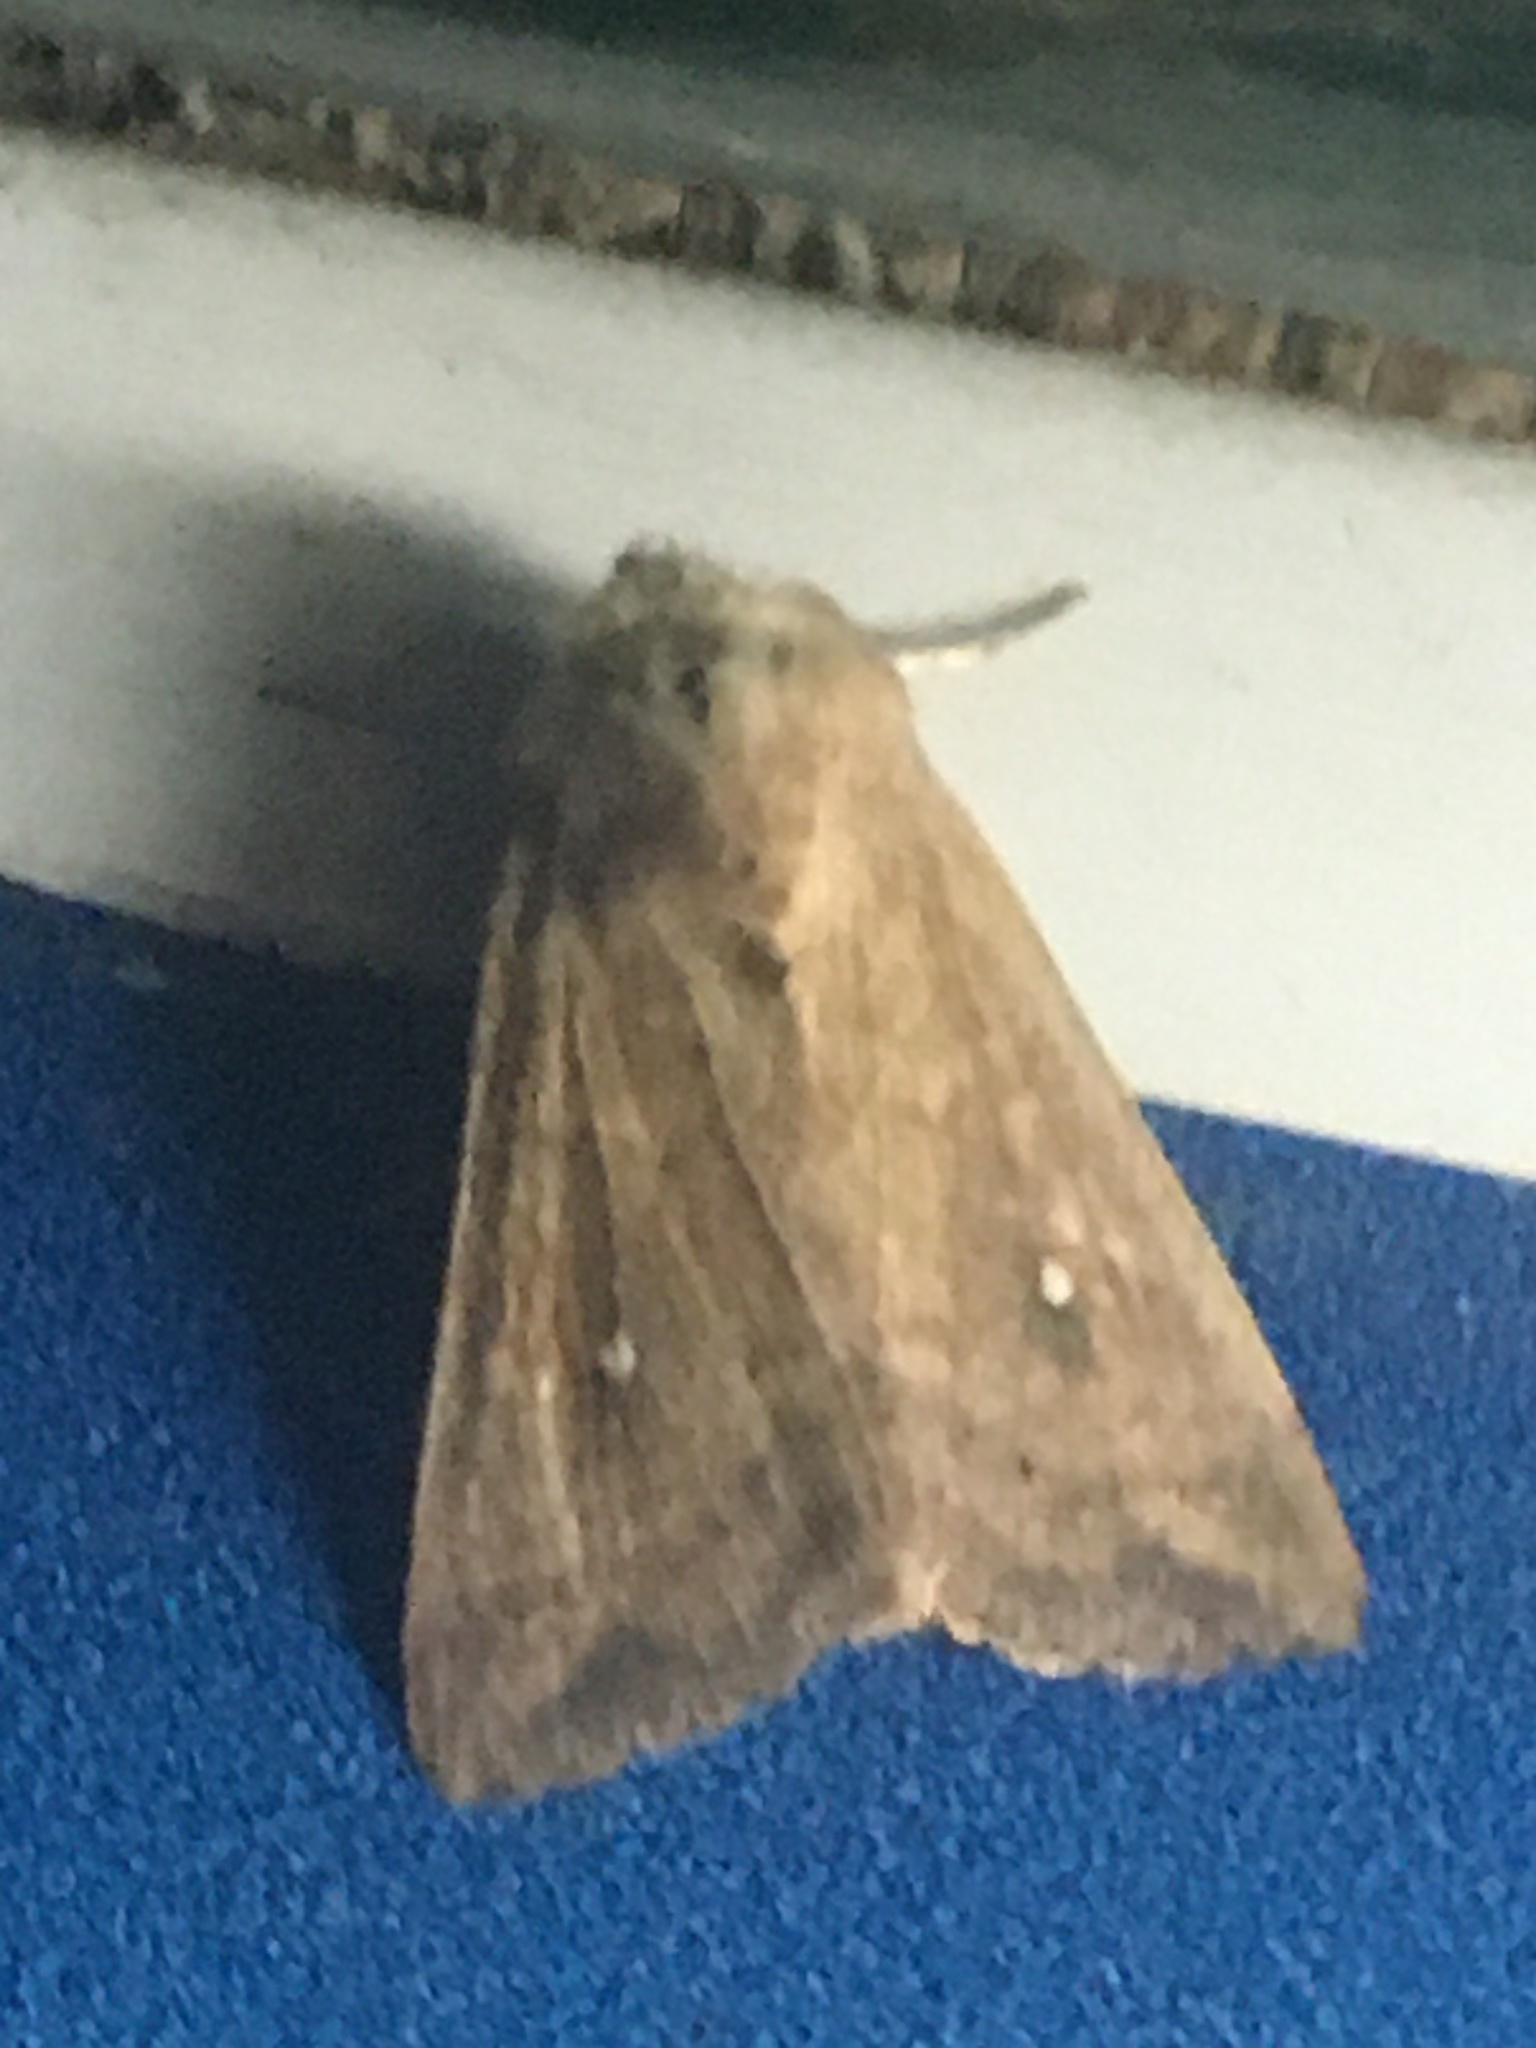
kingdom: Animalia
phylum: Arthropoda
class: Insecta
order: Lepidoptera
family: Noctuidae
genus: Mythimna
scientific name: Mythimna albipuncta
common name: White-point
